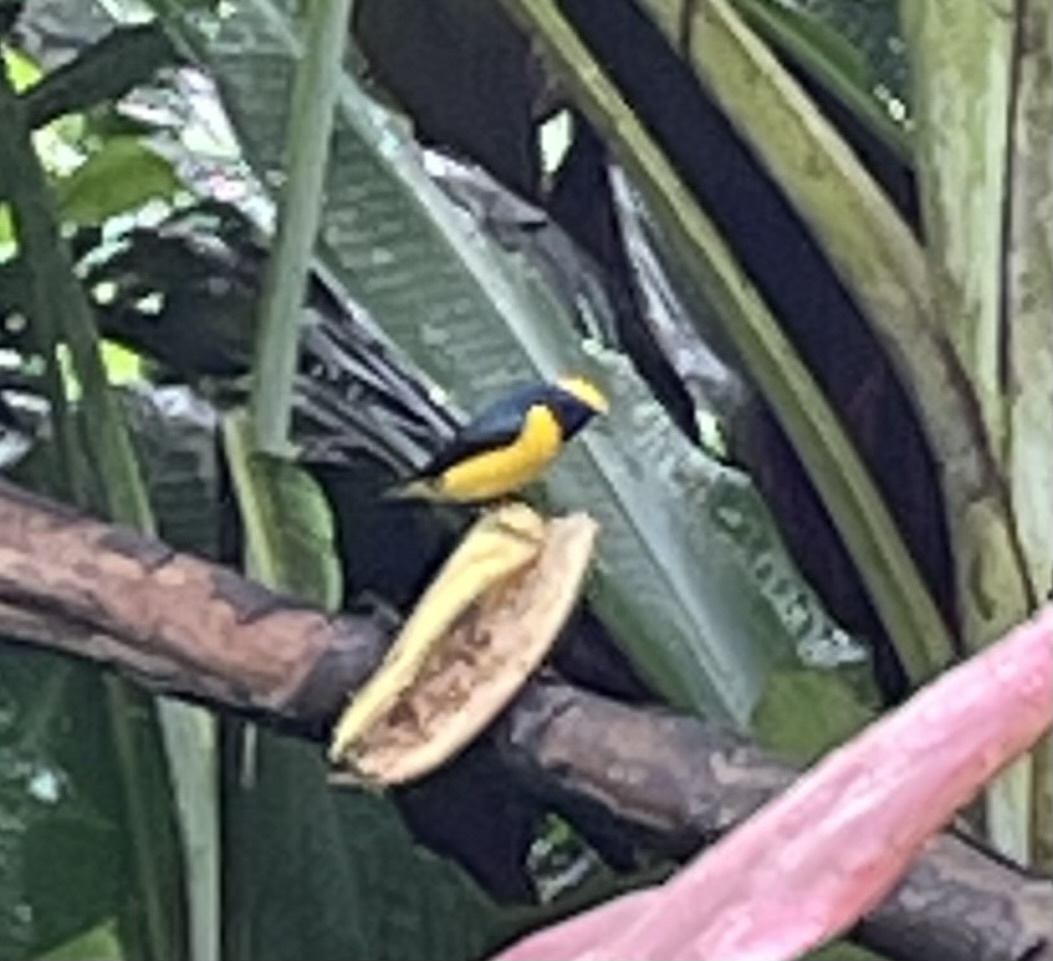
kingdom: Animalia
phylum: Chordata
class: Aves
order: Passeriformes
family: Fringillidae
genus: Euphonia
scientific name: Euphonia luteicapilla
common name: Yellow-crowned euphonia
